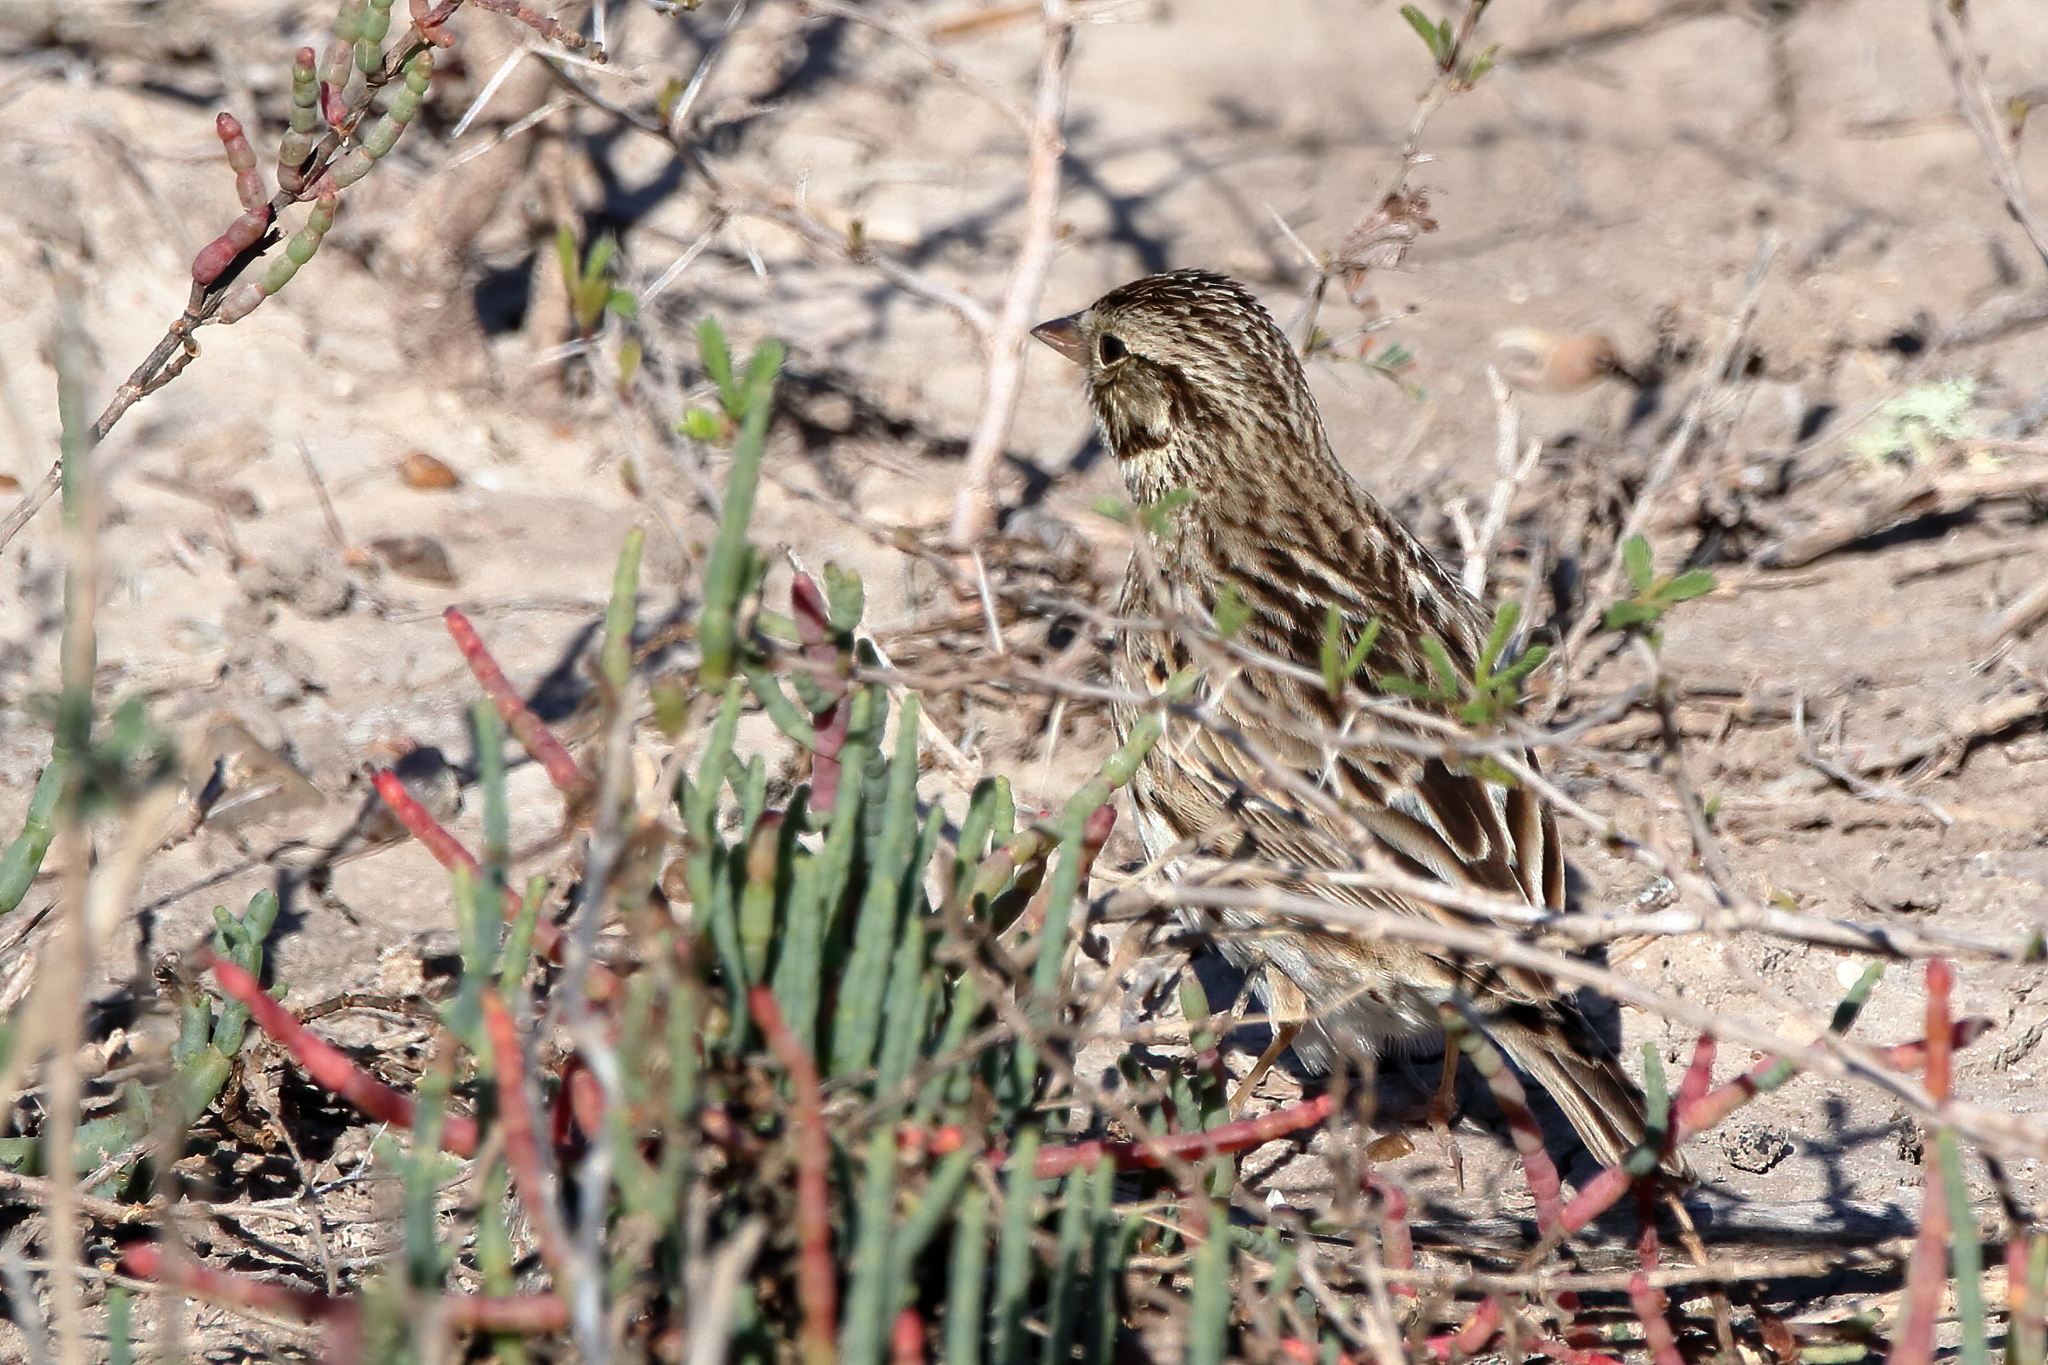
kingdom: Animalia
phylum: Chordata
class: Aves
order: Passeriformes
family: Passerellidae
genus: Passerculus
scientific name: Passerculus sandwichensis
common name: Savannah sparrow
